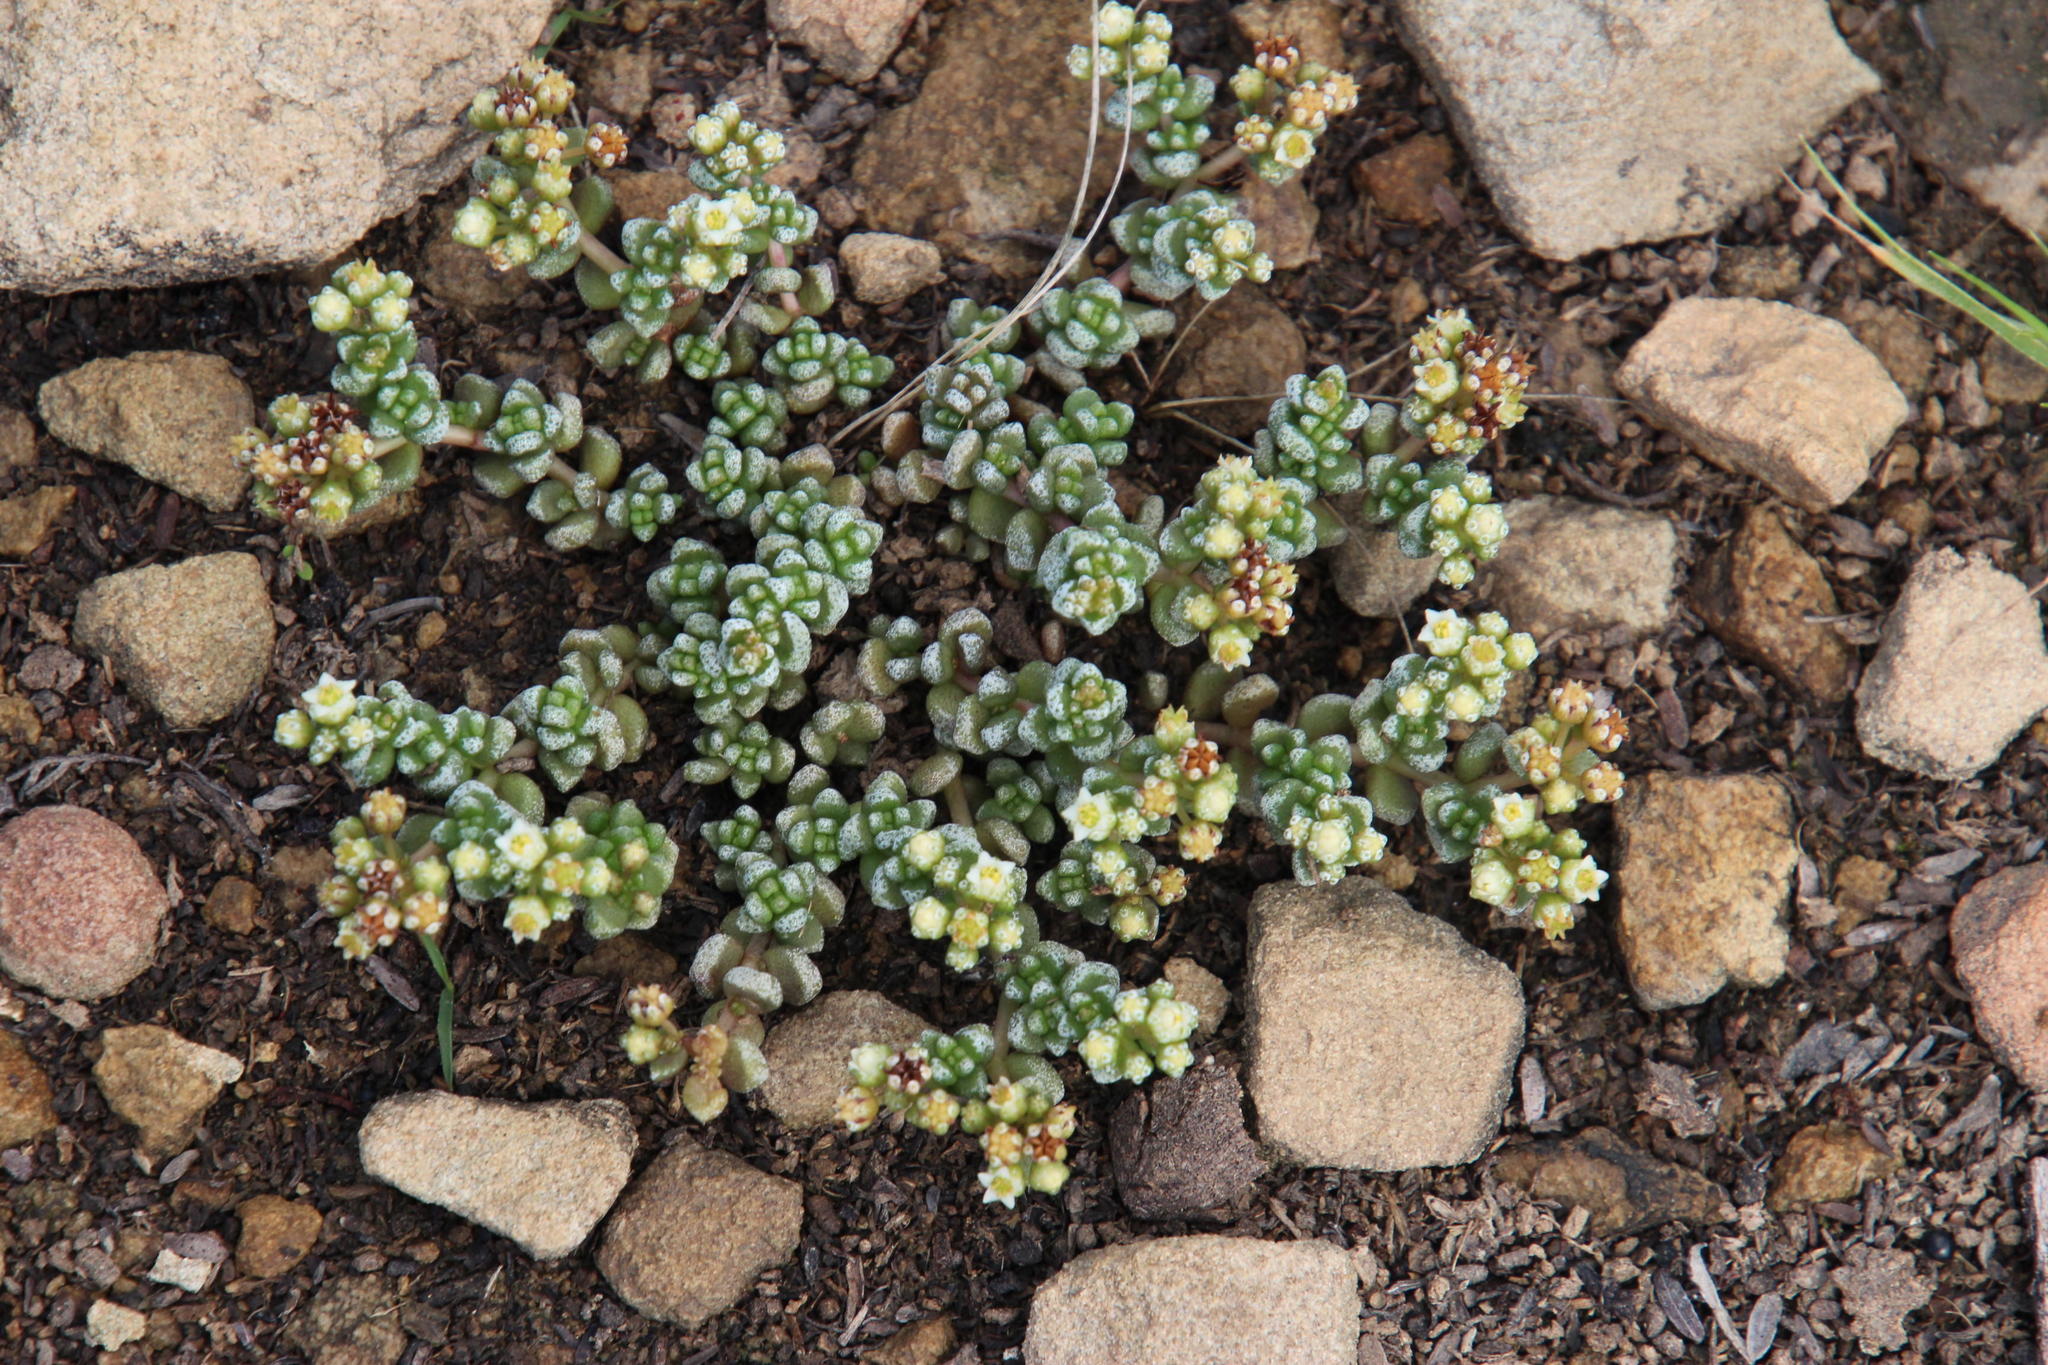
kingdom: Plantae
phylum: Tracheophyta
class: Magnoliopsida
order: Saxifragales
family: Crassulaceae
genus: Crassula
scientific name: Crassula corallina
